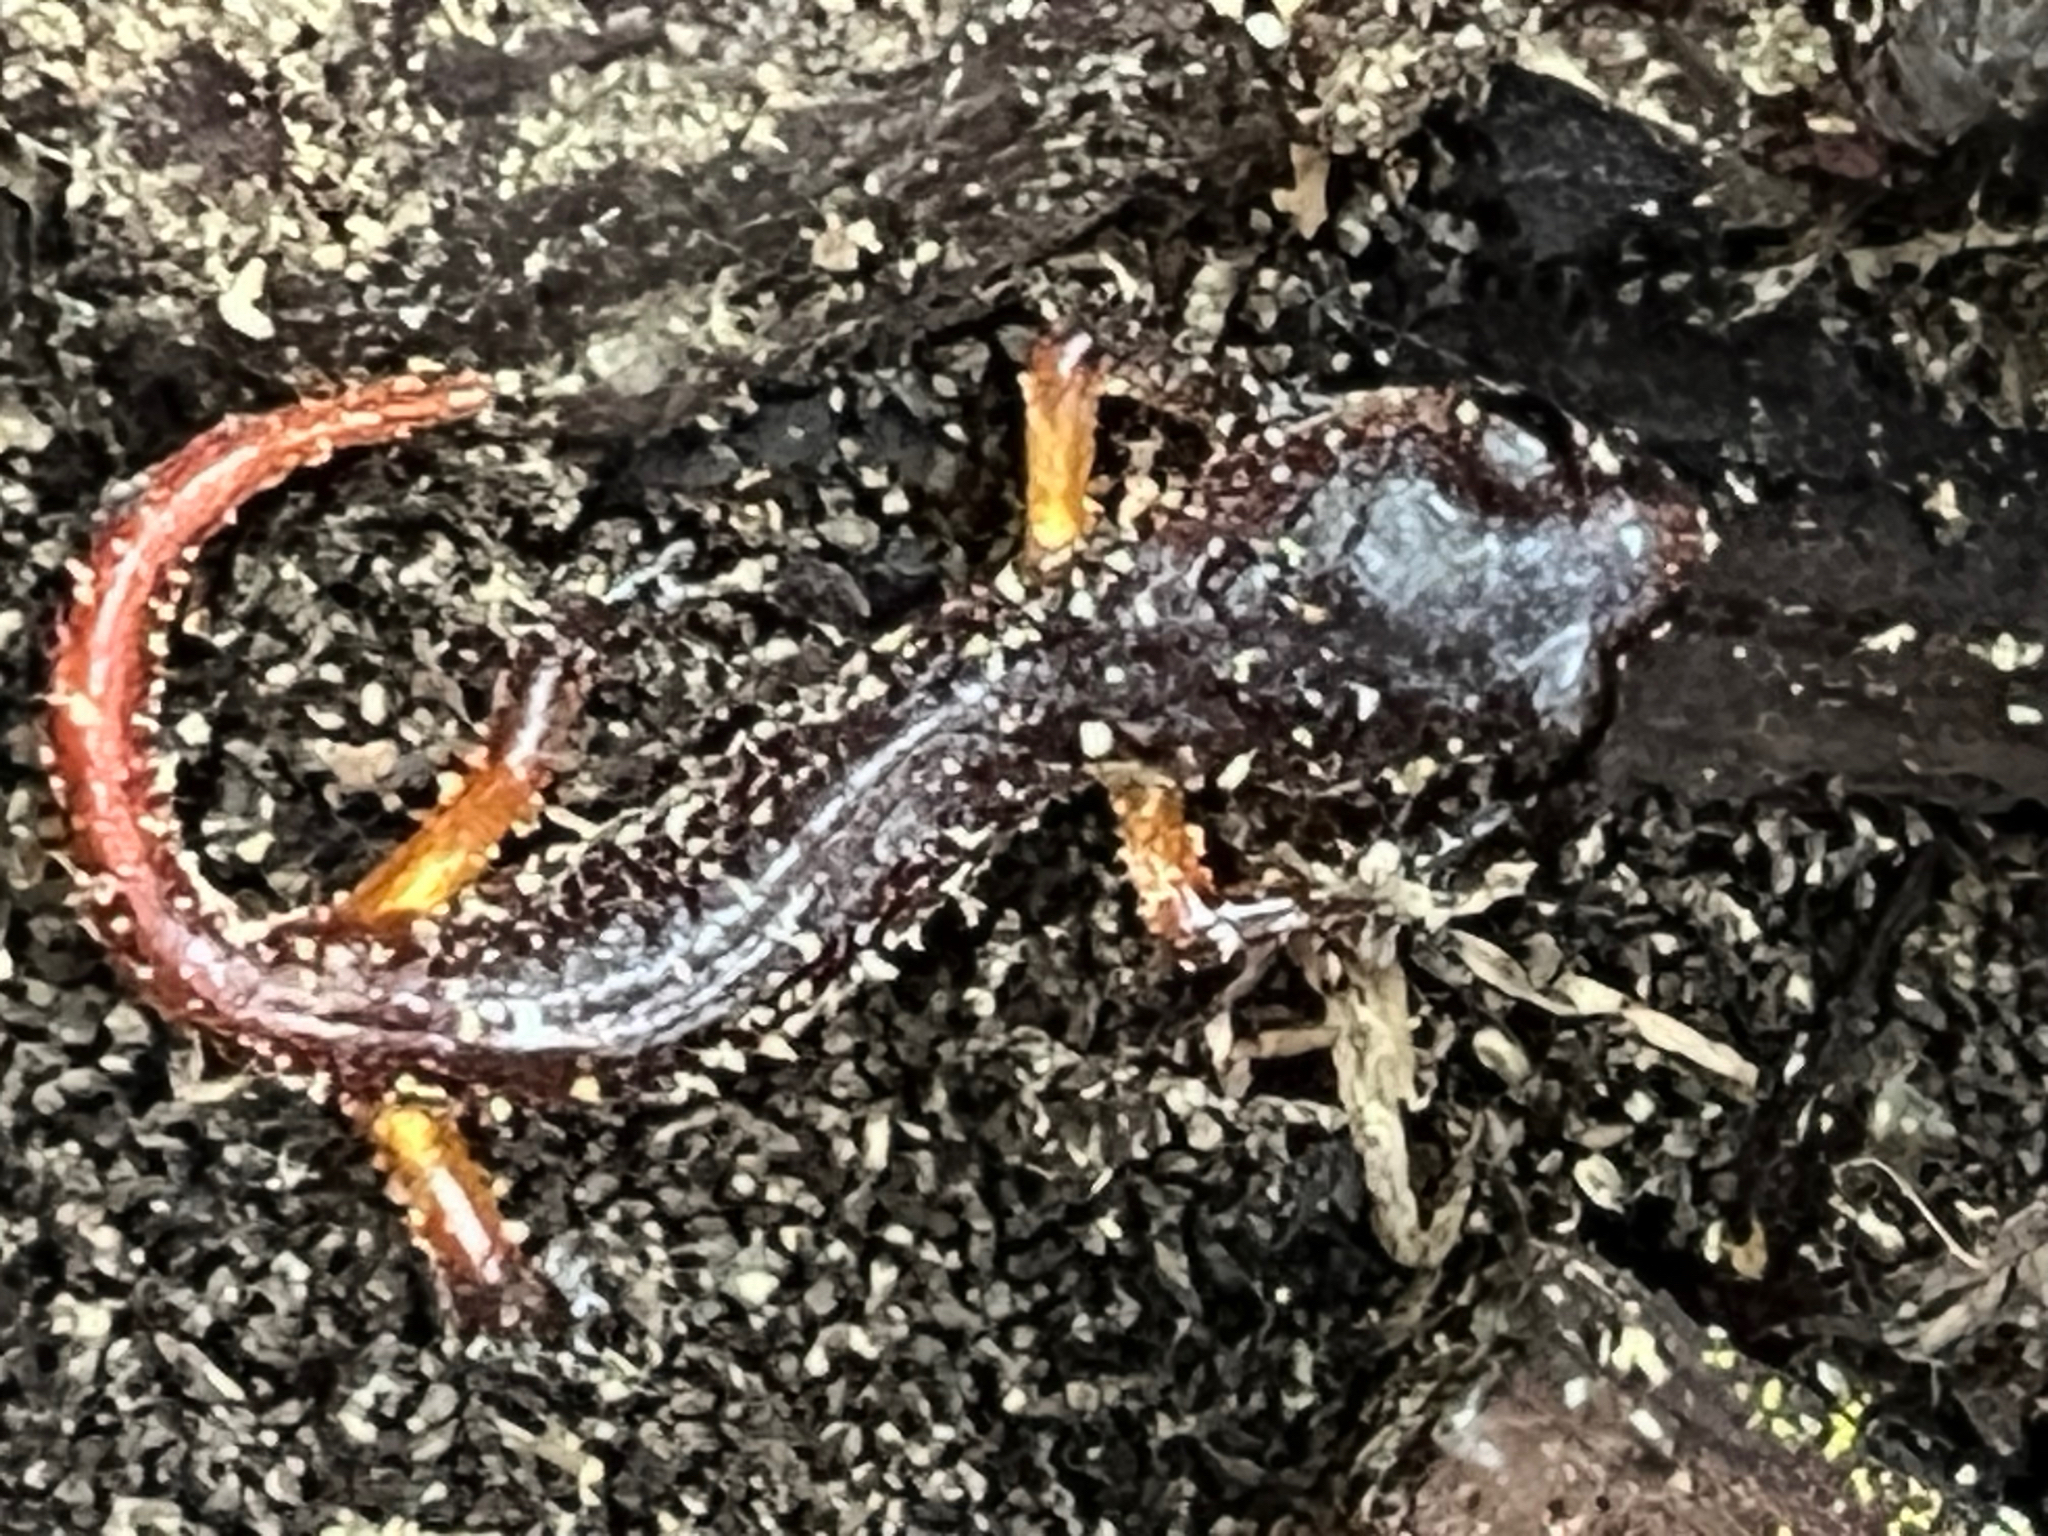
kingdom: Animalia
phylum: Chordata
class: Amphibia
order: Caudata
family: Plethodontidae
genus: Ensatina
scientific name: Ensatina eschscholtzii
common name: Ensatina
